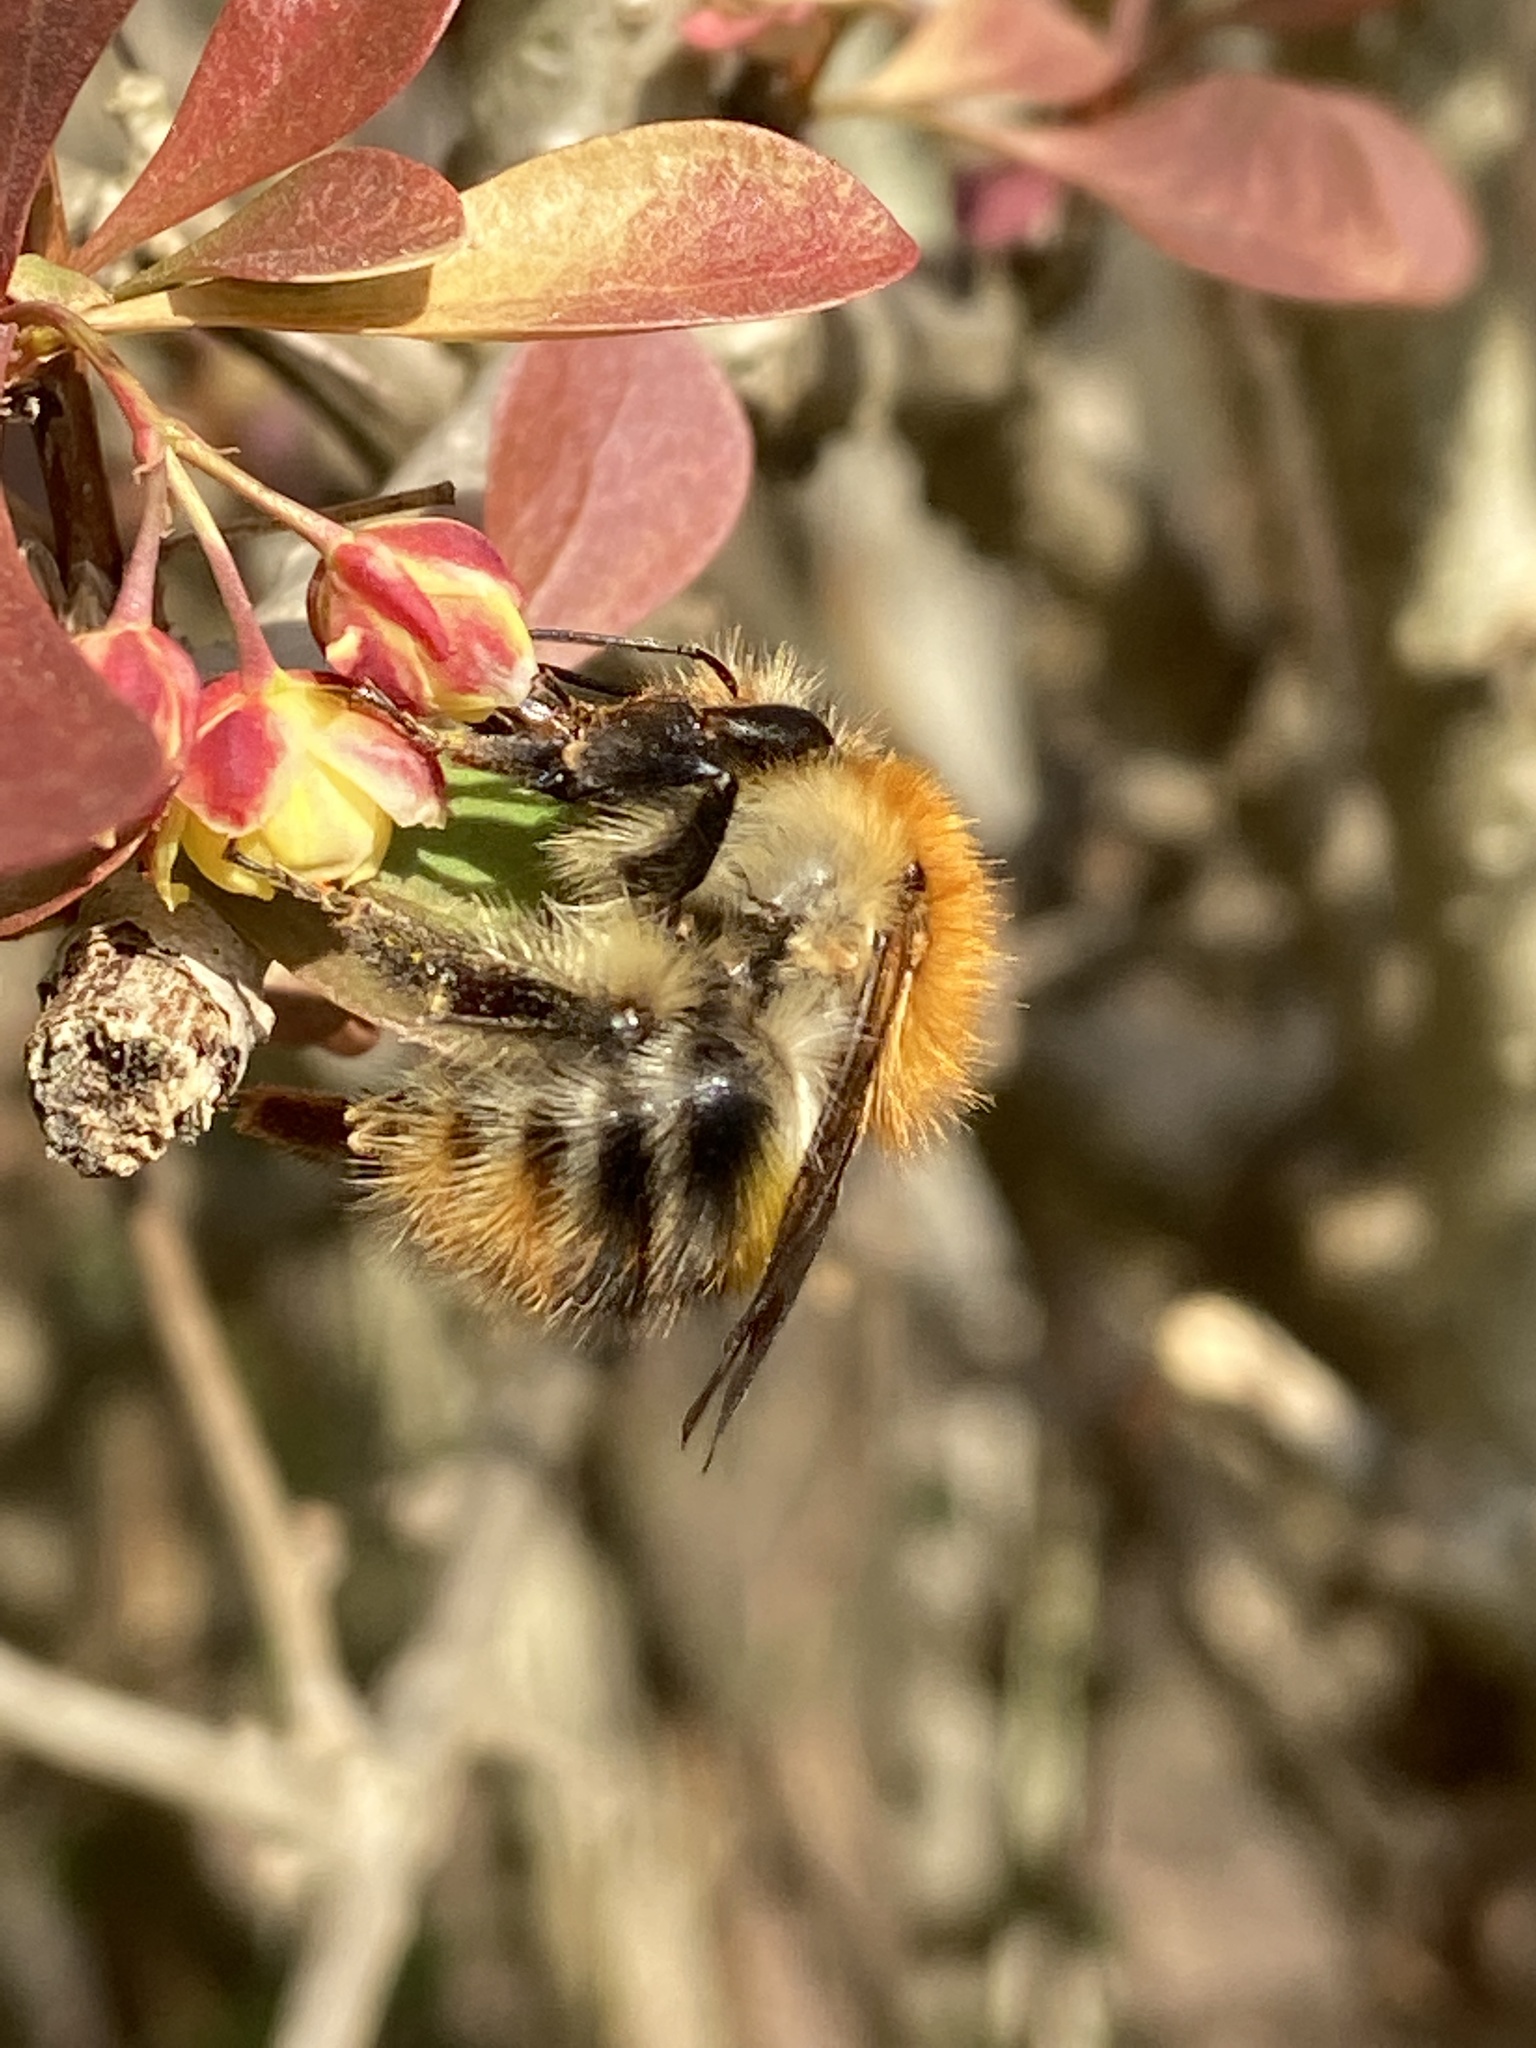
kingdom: Animalia
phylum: Arthropoda
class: Insecta
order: Hymenoptera
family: Apidae
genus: Bombus
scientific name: Bombus pascuorum
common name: Common carder bee
